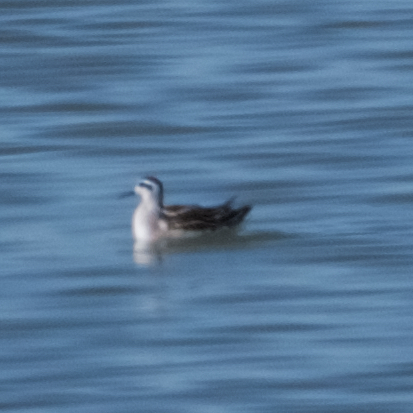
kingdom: Animalia
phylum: Chordata
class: Aves
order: Charadriiformes
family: Scolopacidae
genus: Phalaropus
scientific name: Phalaropus lobatus
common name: Red-necked phalarope
